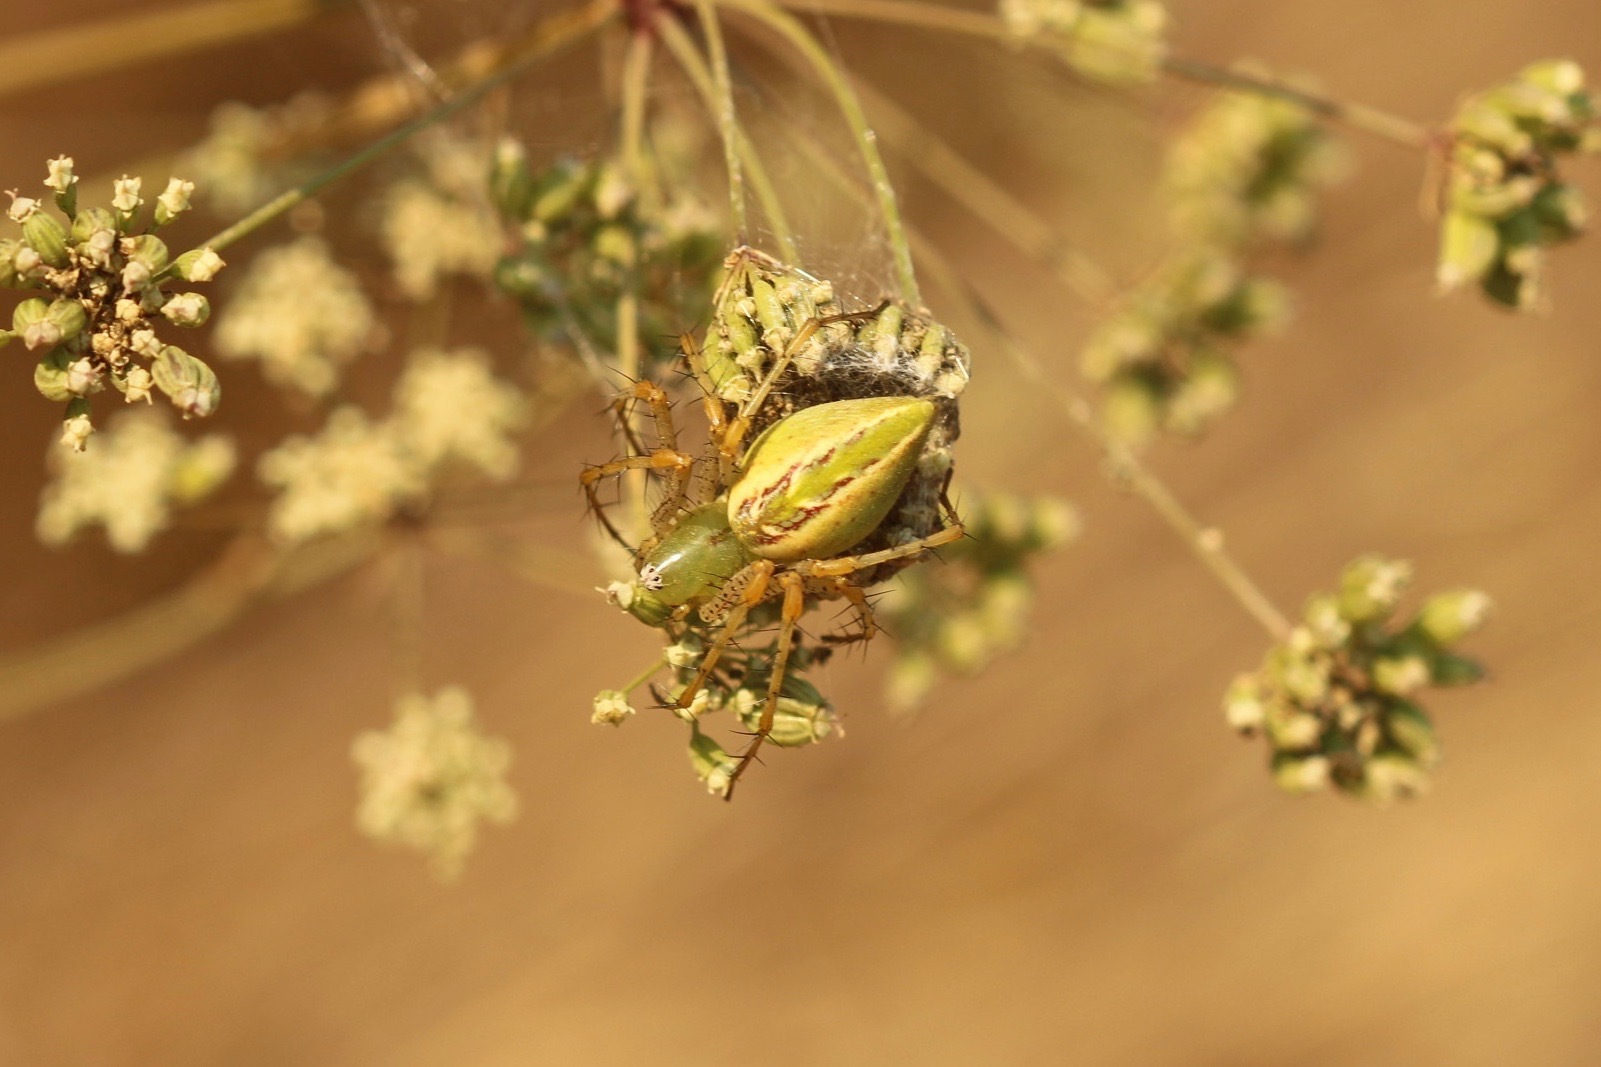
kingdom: Animalia
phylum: Arthropoda
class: Arachnida
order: Araneae
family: Oxyopidae
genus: Peucetia
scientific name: Peucetia viridans
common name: Lynx spiders
